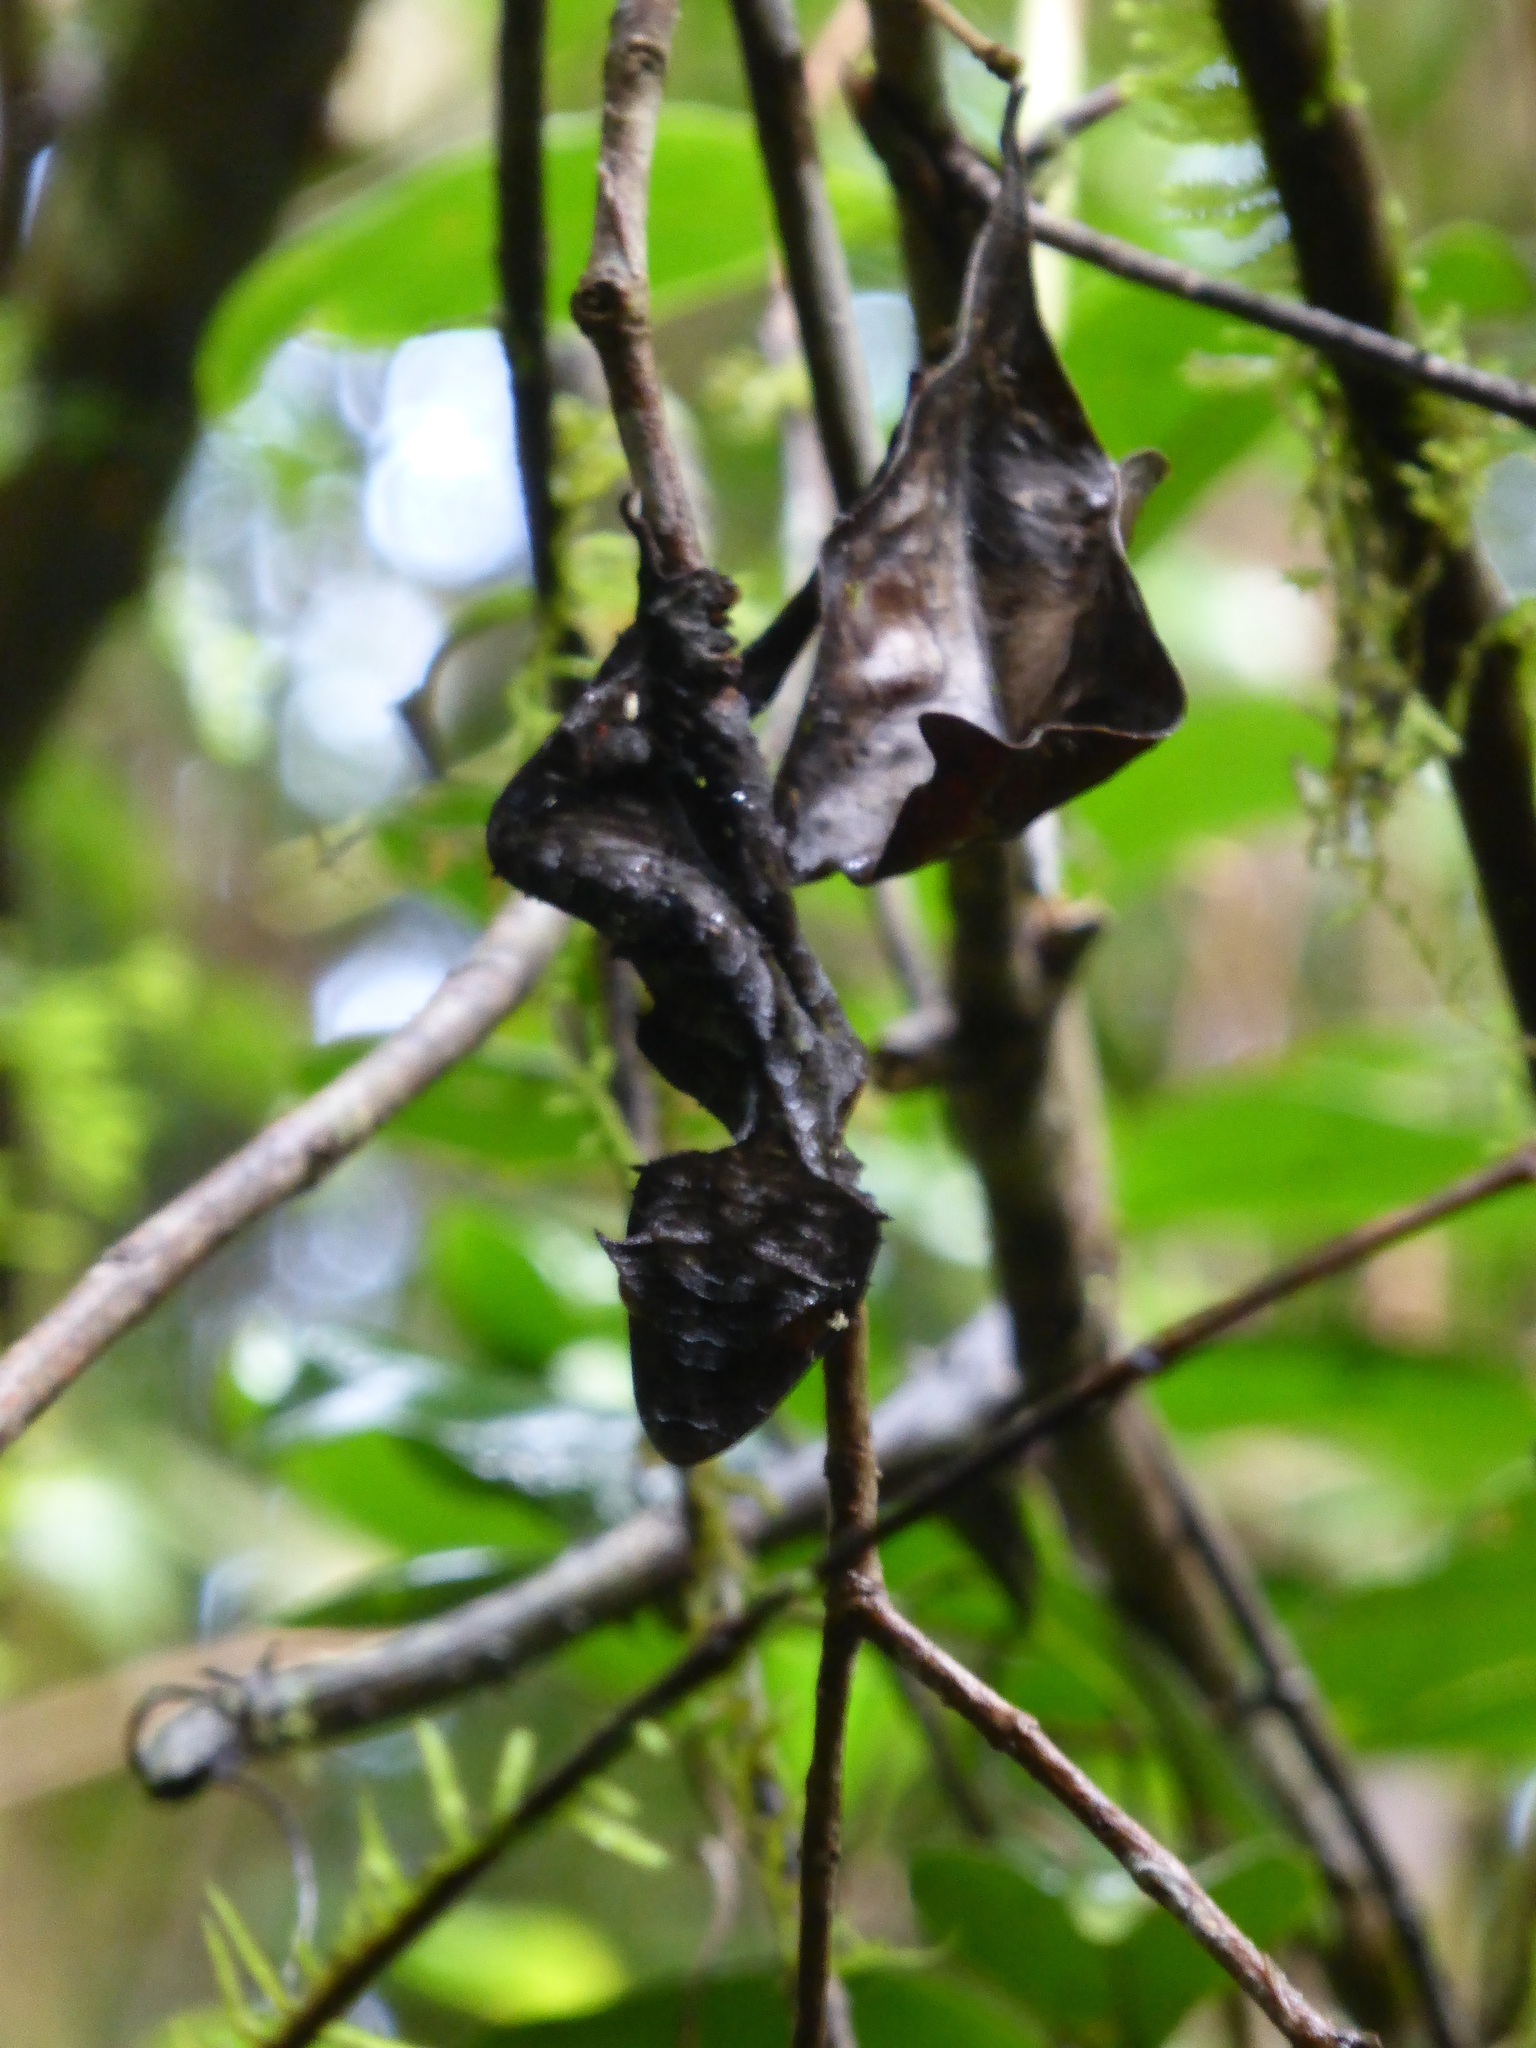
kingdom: Animalia
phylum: Chordata
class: Squamata
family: Gekkonidae
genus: Uroplatus
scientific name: Uroplatus phantasticus
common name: Phantastic leaf-tailed gecko
